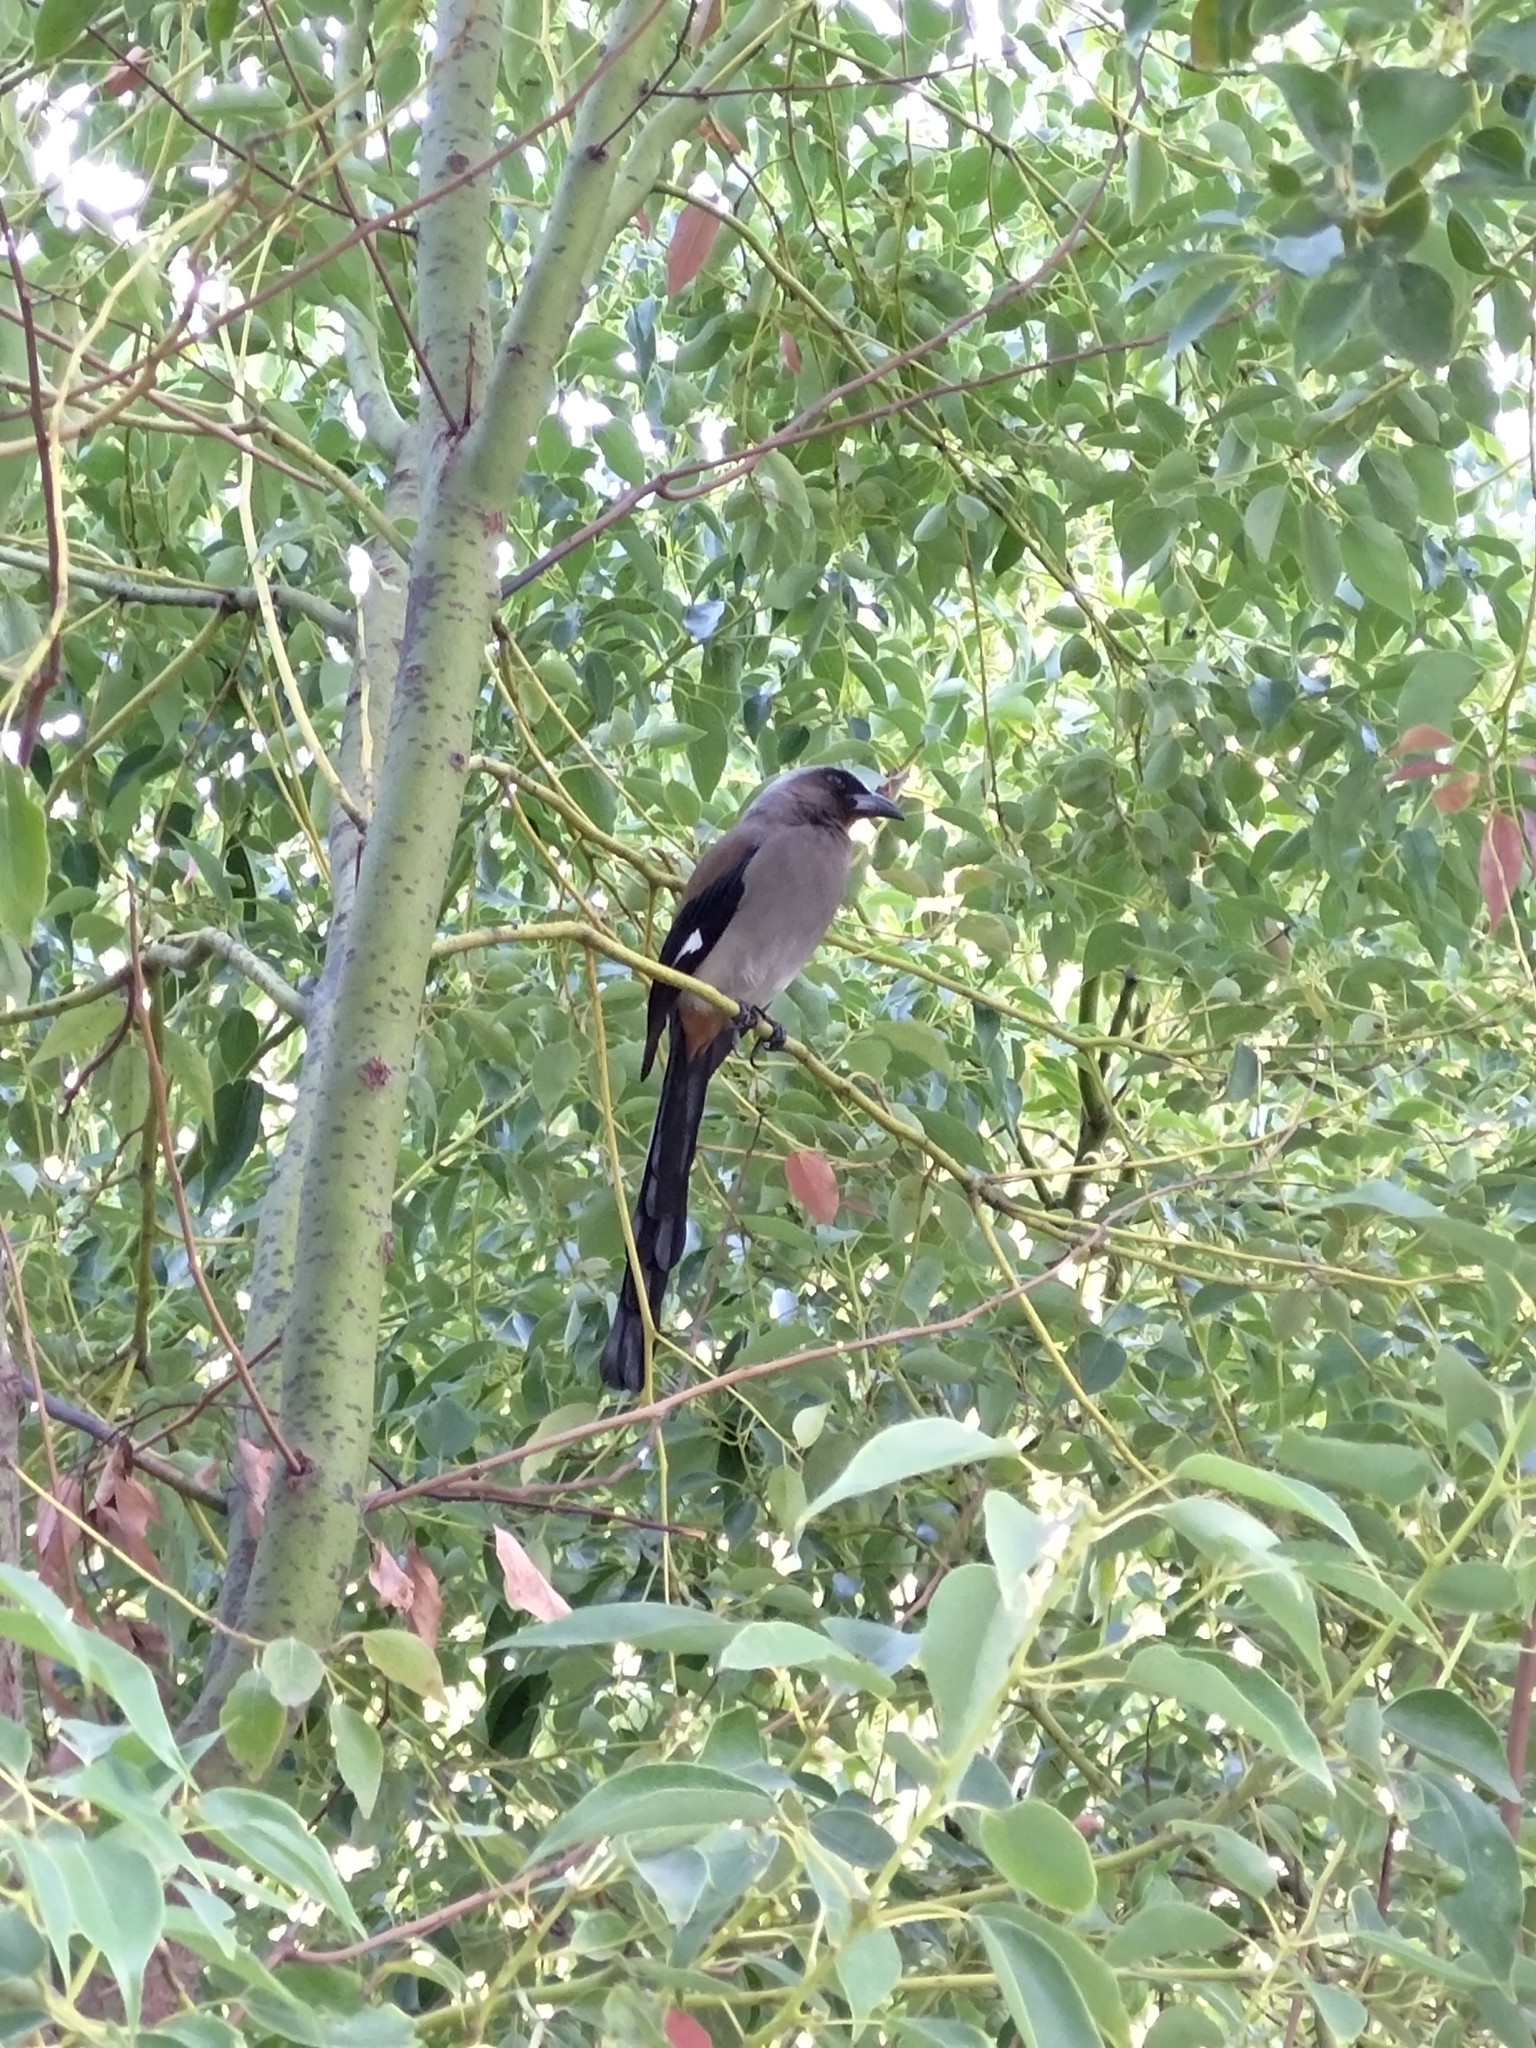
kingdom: Animalia
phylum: Chordata
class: Aves
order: Passeriformes
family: Corvidae
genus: Dendrocitta
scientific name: Dendrocitta formosae
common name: Grey treepie
